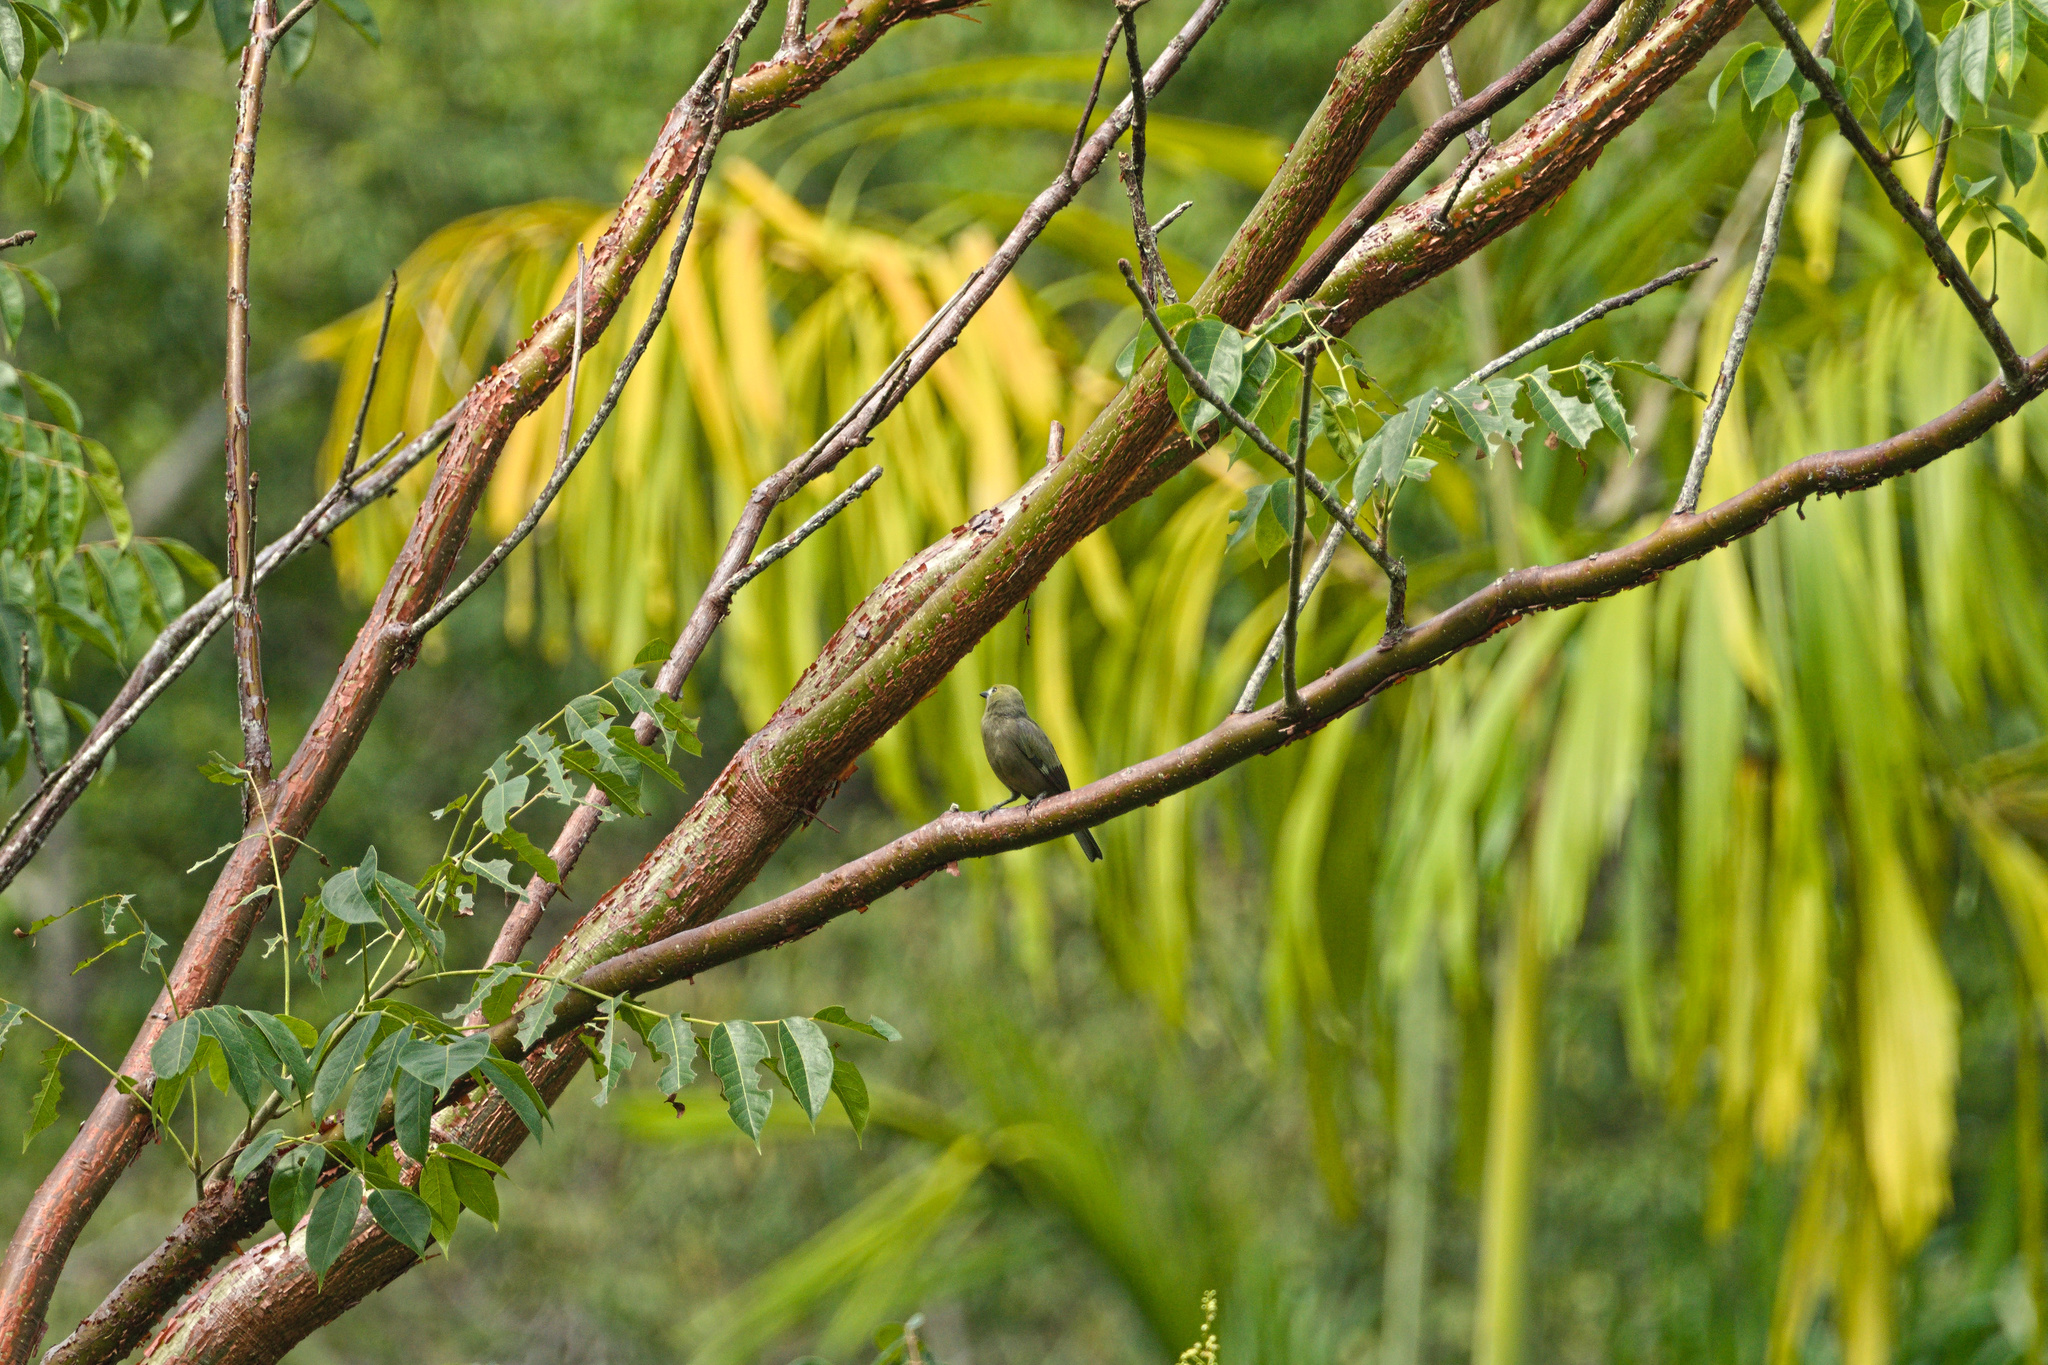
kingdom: Animalia
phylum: Chordata
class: Aves
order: Passeriformes
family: Thraupidae
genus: Thraupis
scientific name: Thraupis palmarum
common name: Palm tanager
